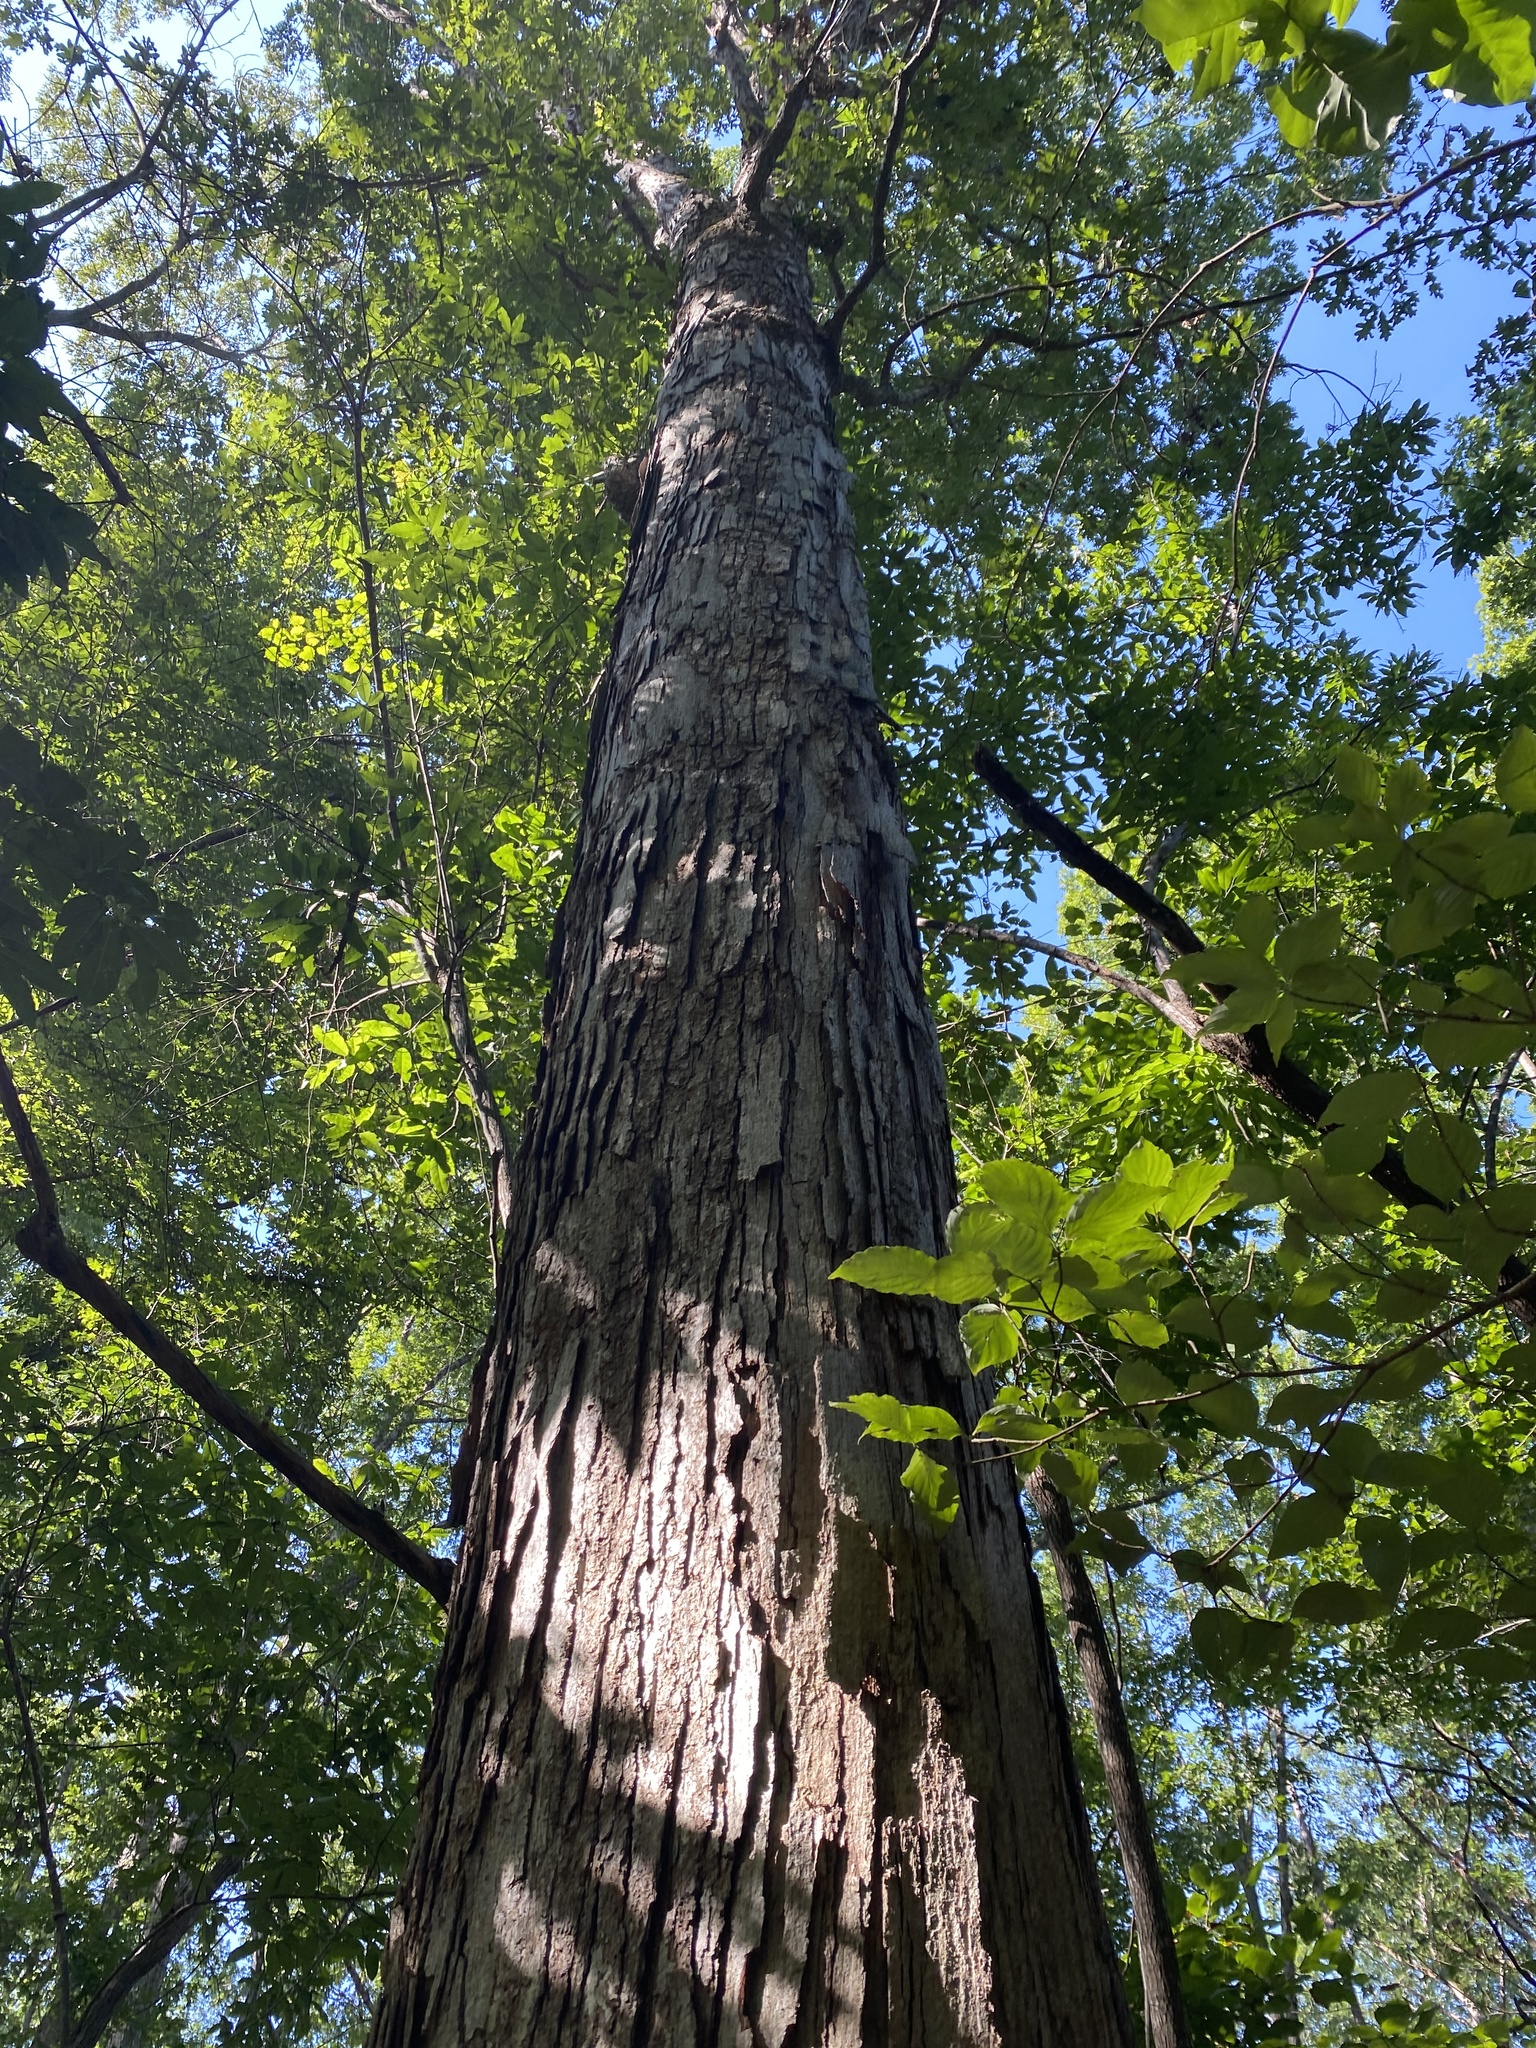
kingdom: Plantae
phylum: Tracheophyta
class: Magnoliopsida
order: Fagales
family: Fagaceae
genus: Quercus
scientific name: Quercus alba
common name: White oak
